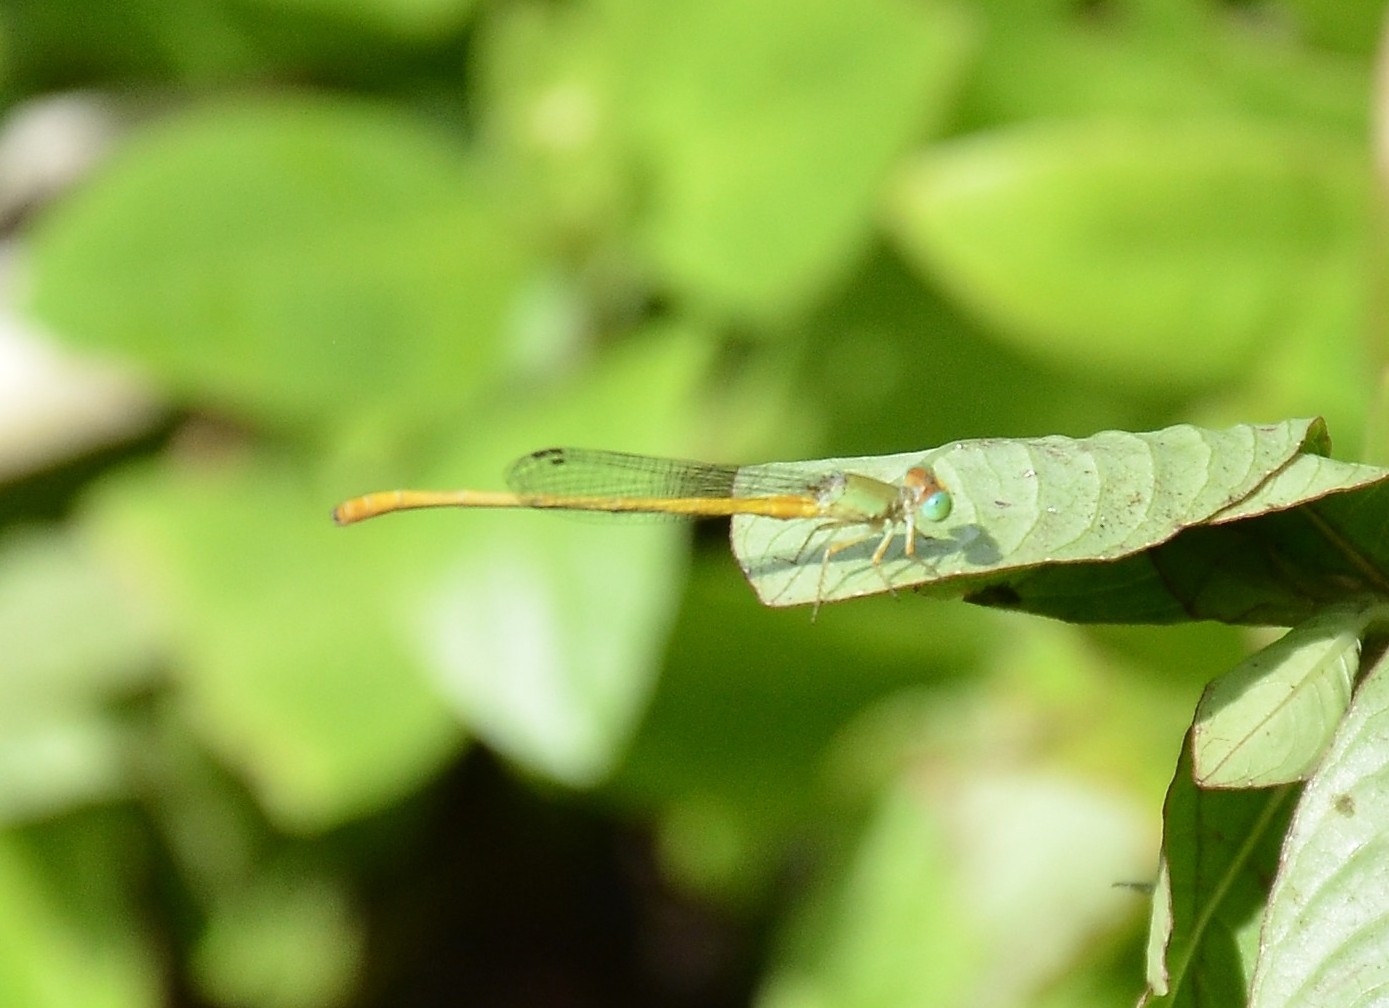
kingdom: Animalia
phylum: Arthropoda
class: Insecta
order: Odonata
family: Coenagrionidae
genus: Ceriagrion
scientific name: Ceriagrion coromandelianum
